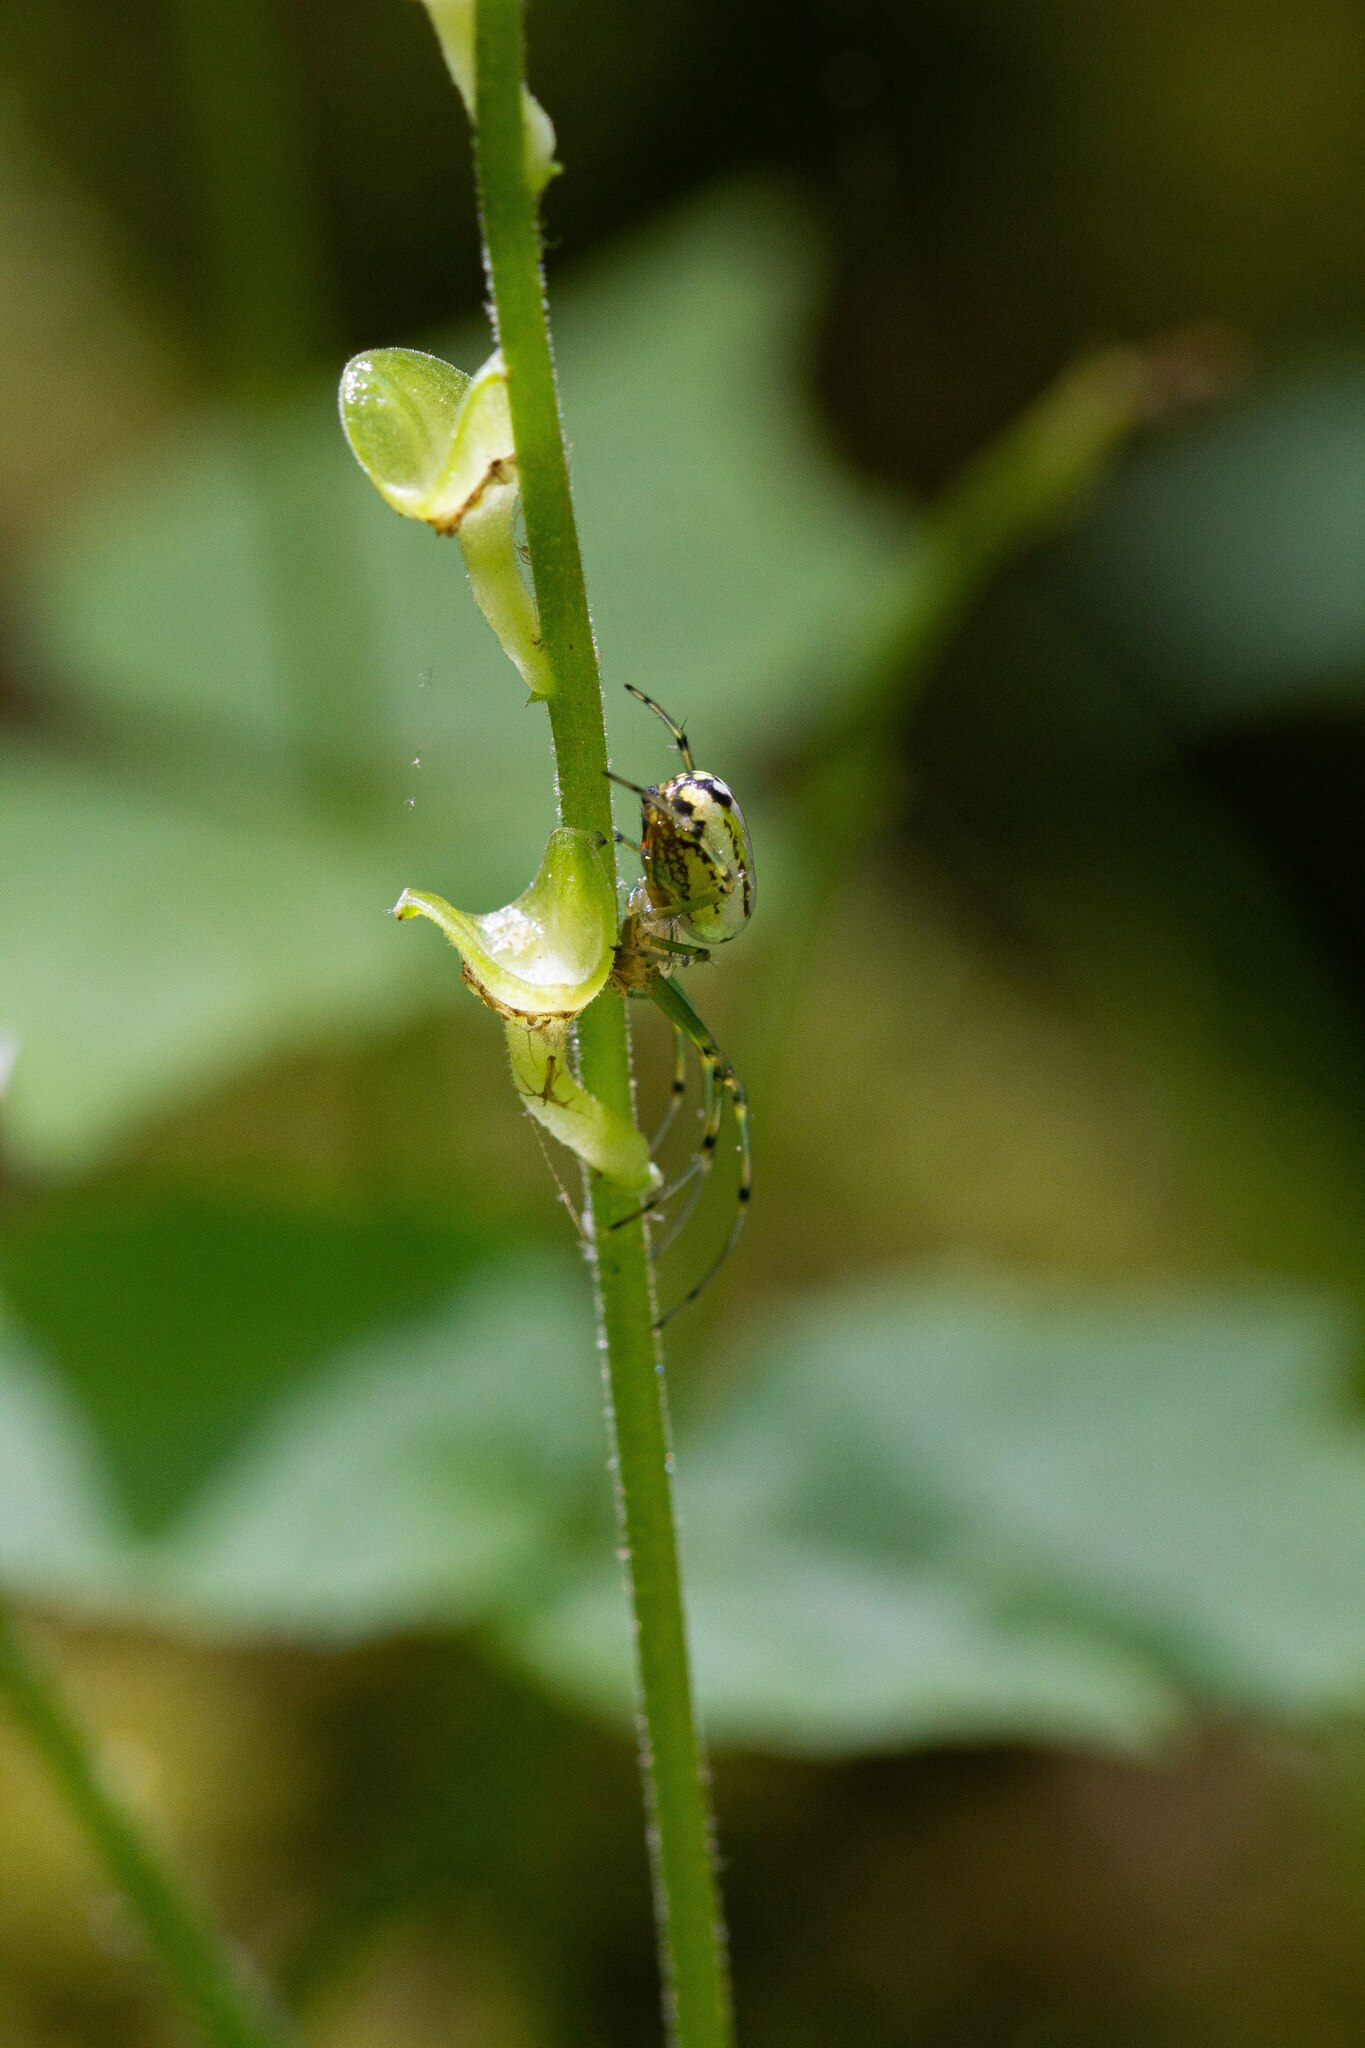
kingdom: Animalia
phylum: Arthropoda
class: Arachnida
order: Araneae
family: Tetragnathidae
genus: Leucauge
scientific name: Leucauge venusta
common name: Longjawed orb weavers
